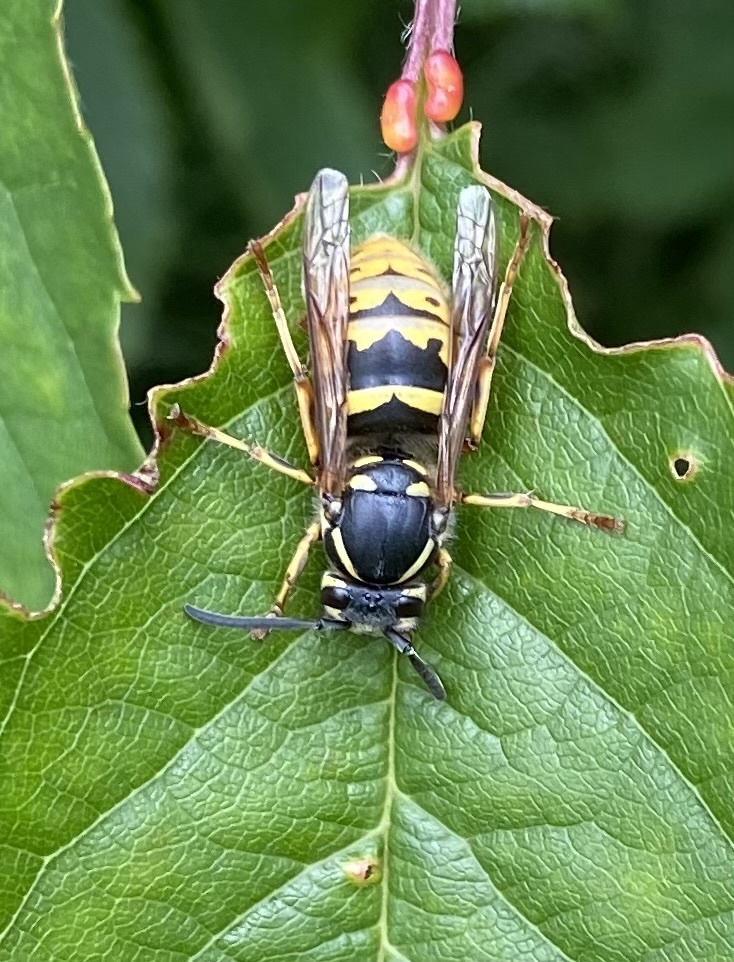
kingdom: Animalia
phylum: Arthropoda
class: Insecta
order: Hymenoptera
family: Vespidae
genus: Vespula
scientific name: Vespula vulgaris
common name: Common wasp
